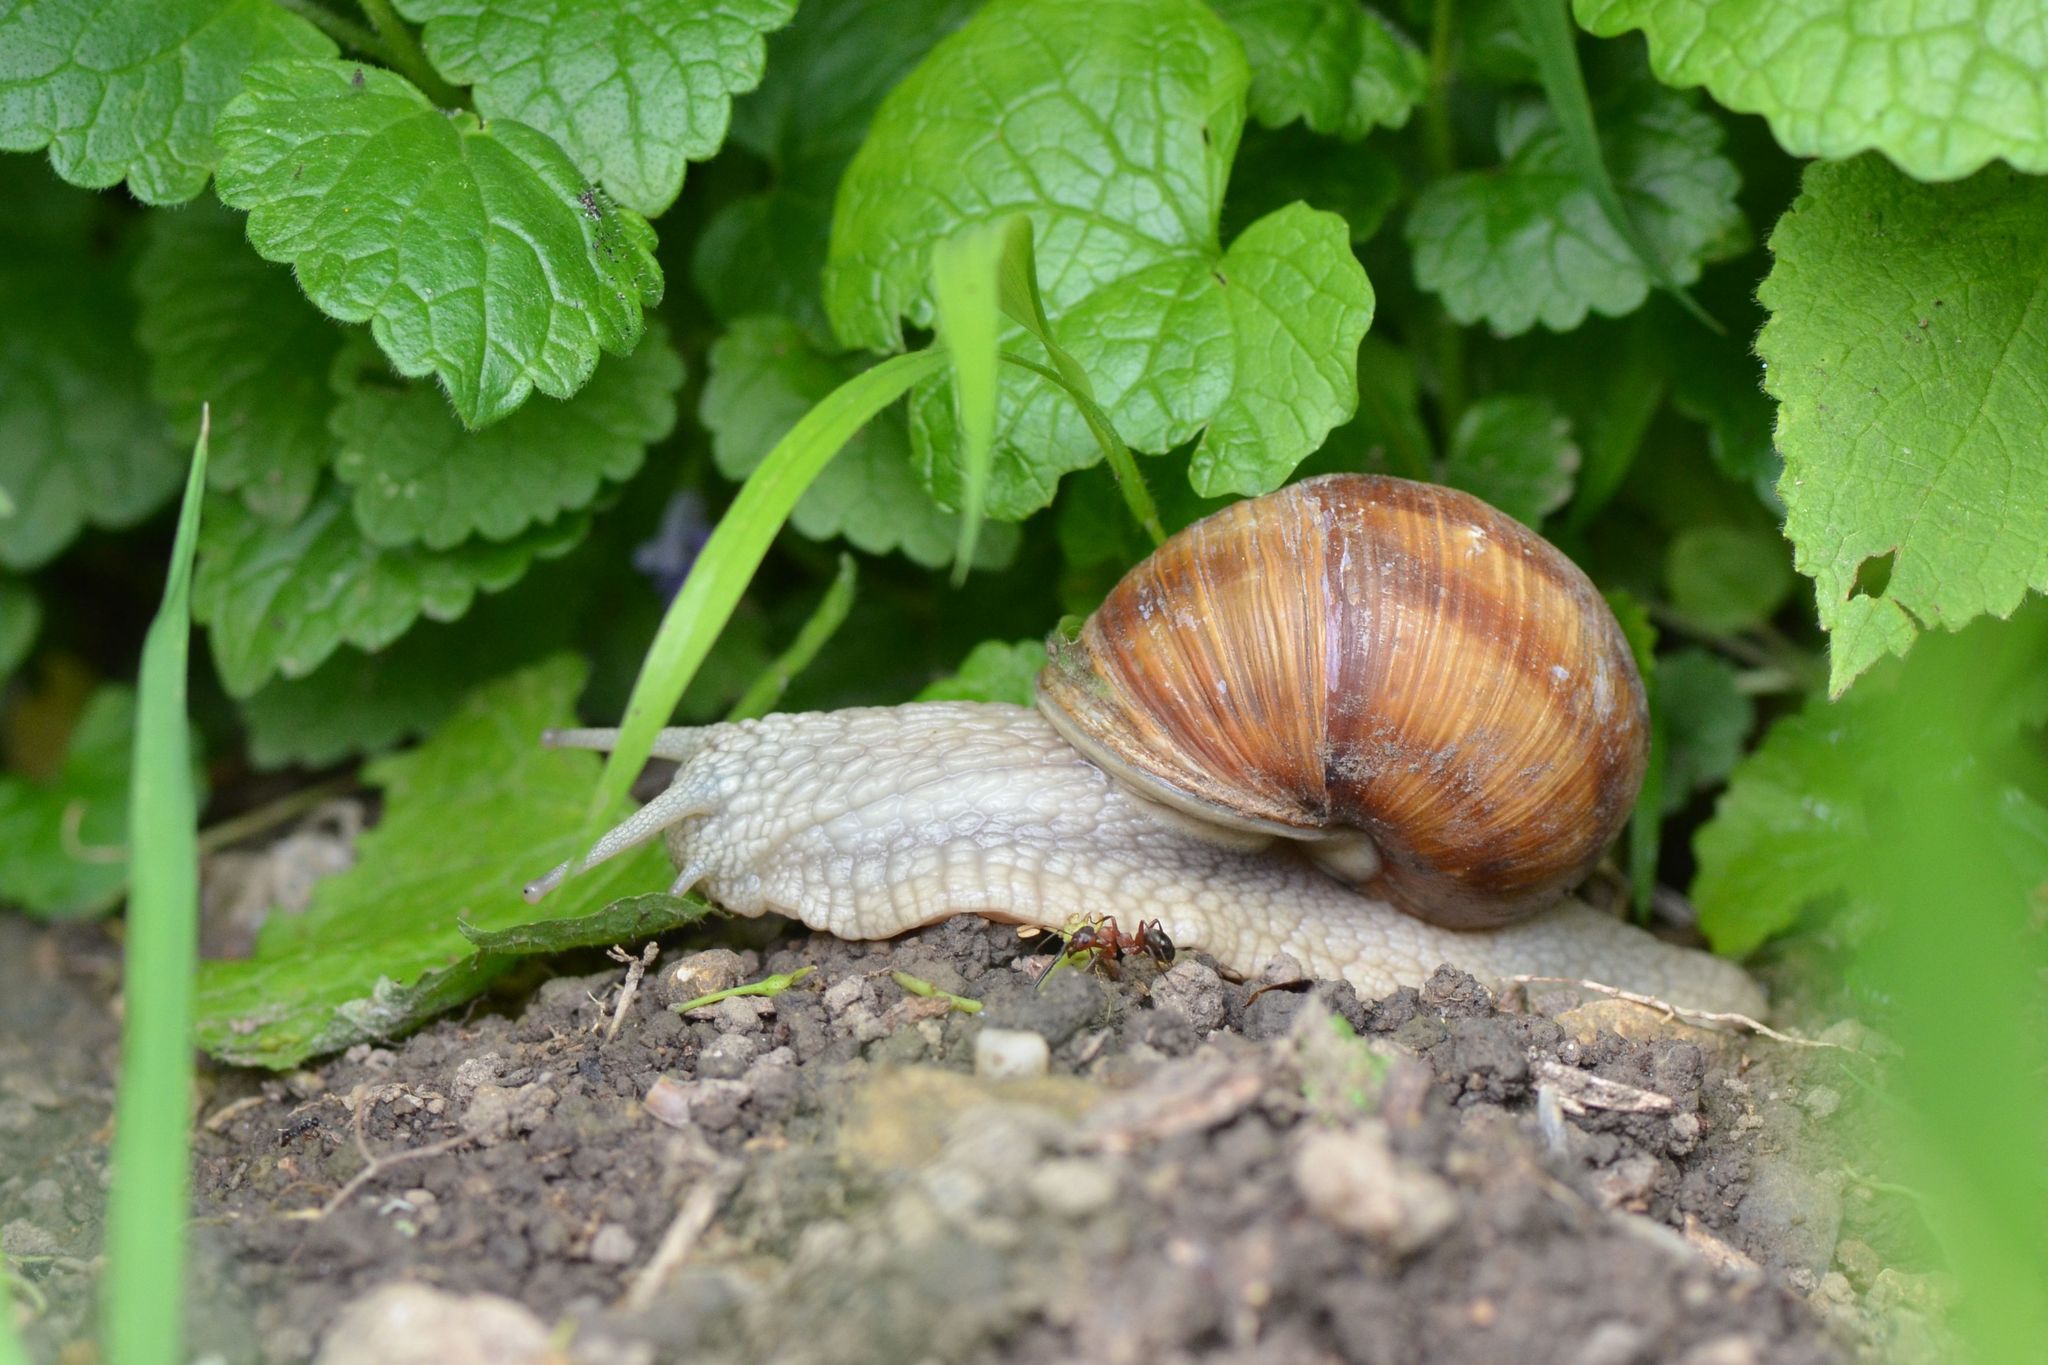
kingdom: Animalia
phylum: Mollusca
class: Gastropoda
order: Stylommatophora
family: Helicidae
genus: Helix
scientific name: Helix pomatia
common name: Roman snail
